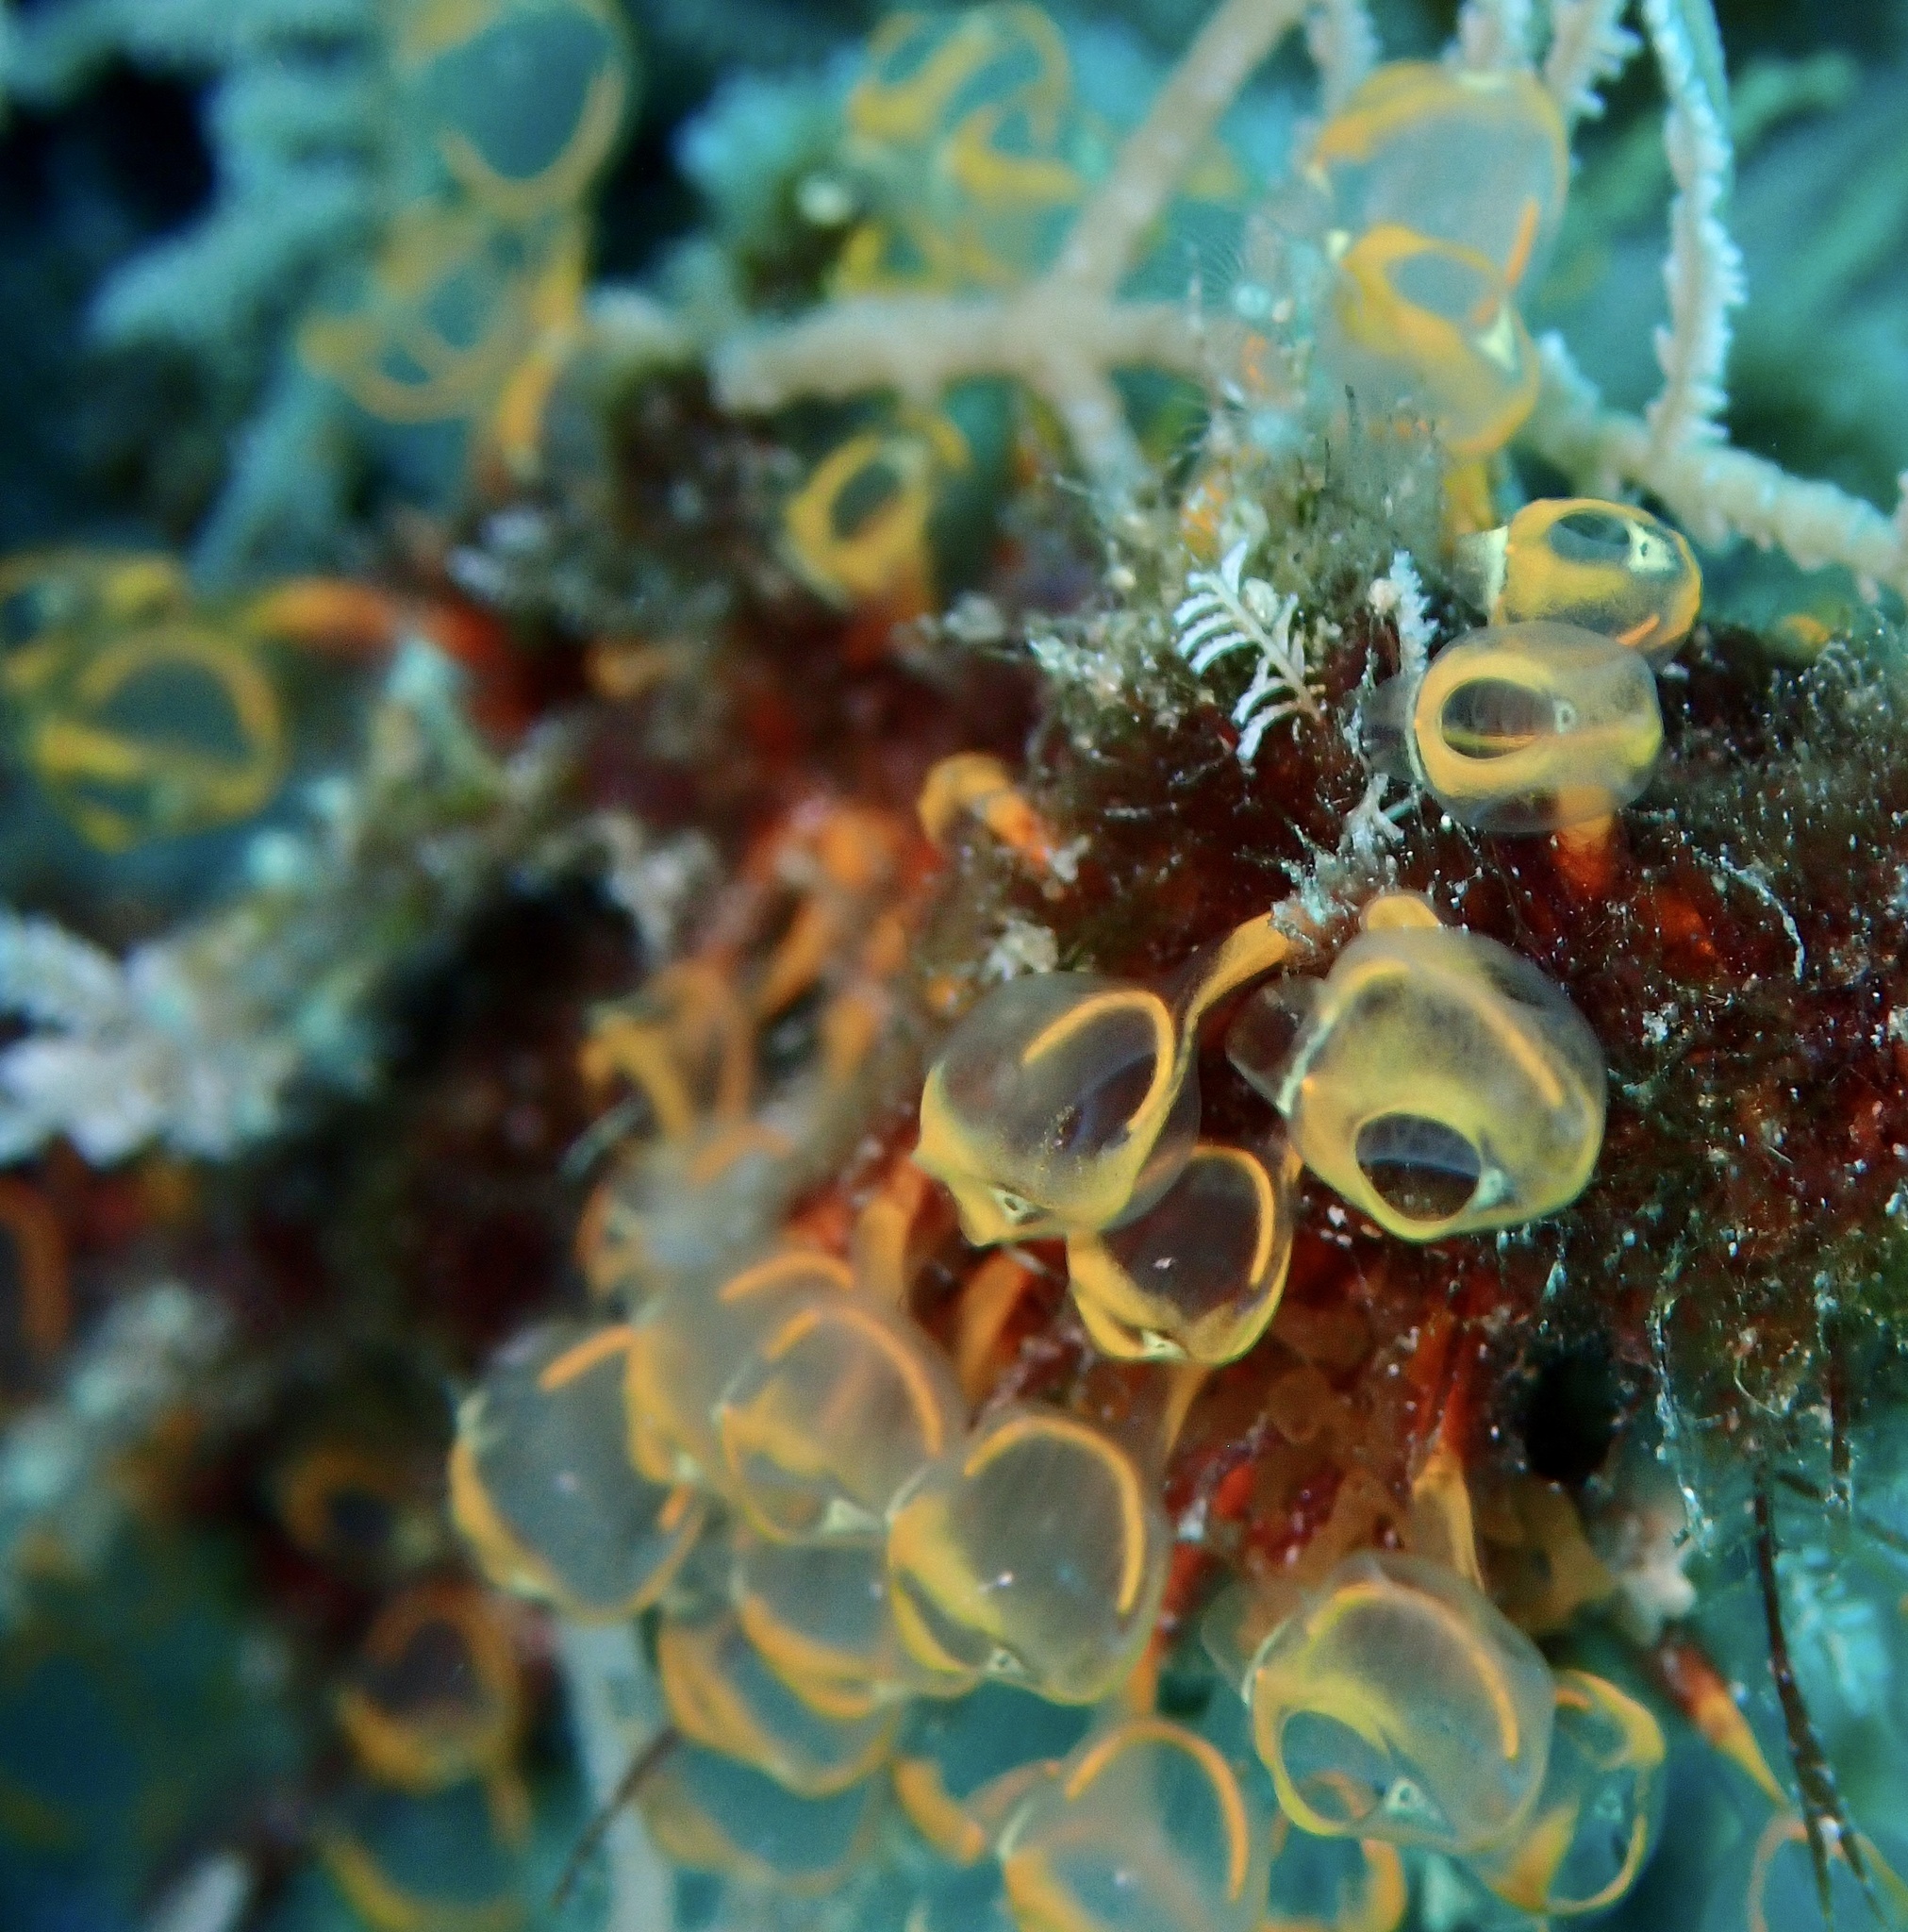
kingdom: Animalia
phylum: Chordata
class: Ascidiacea
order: Aplousobranchia
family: Clavelinidae
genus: Pycnoclavella
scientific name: Pycnoclavella detorta
